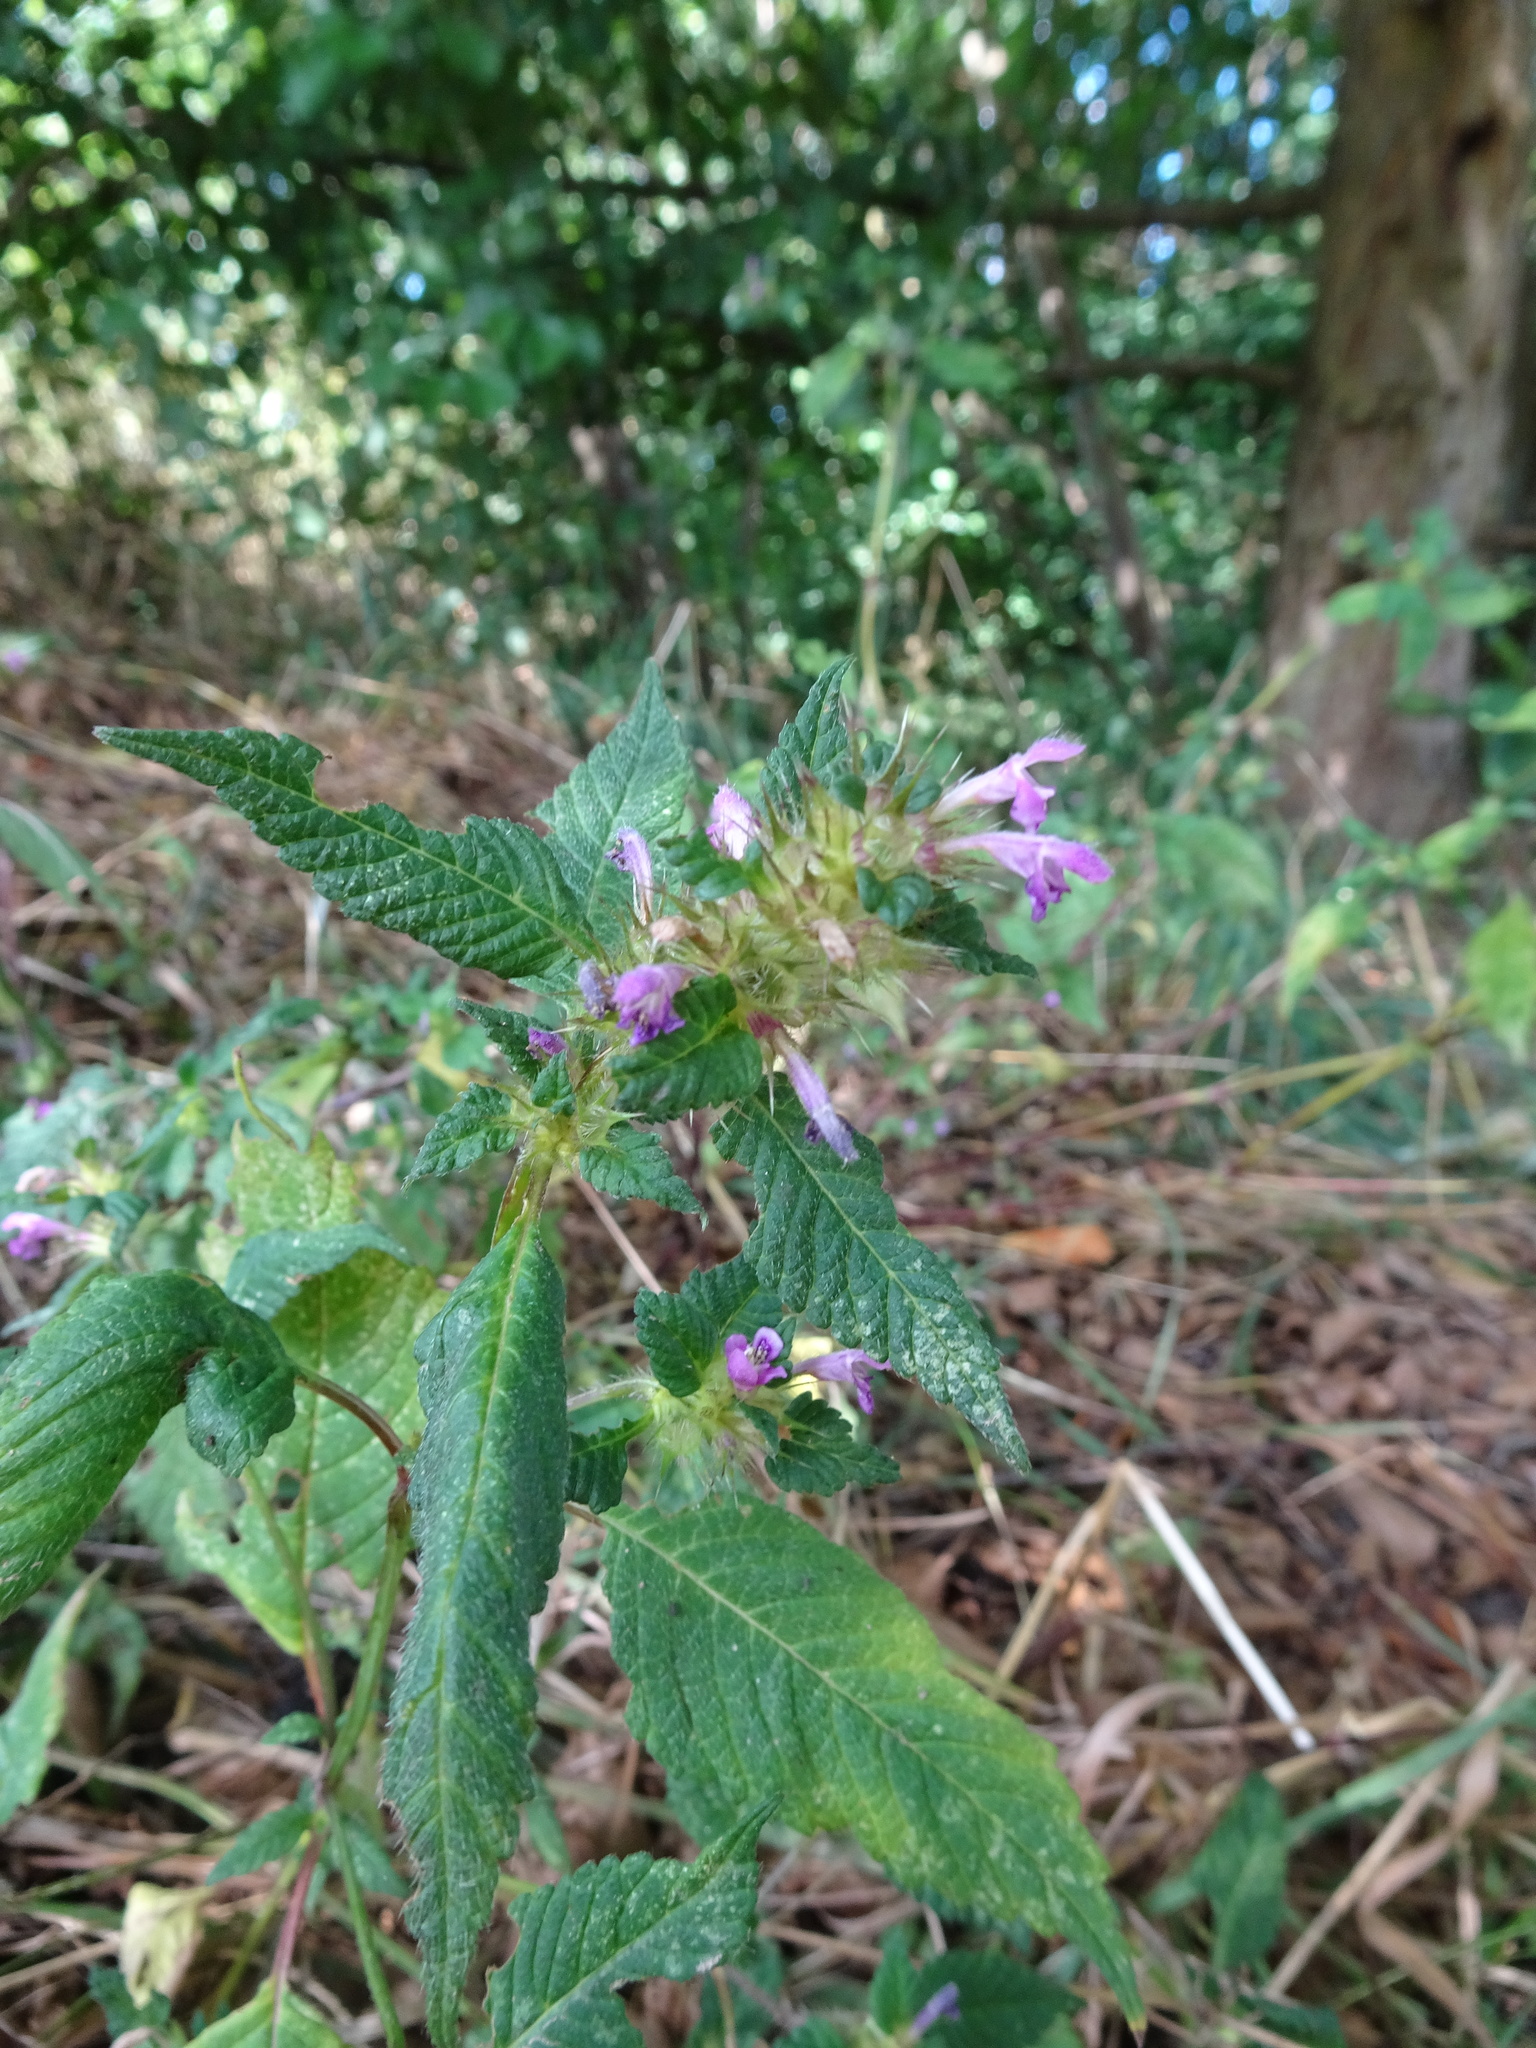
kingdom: Plantae
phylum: Tracheophyta
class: Magnoliopsida
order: Lamiales
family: Lamiaceae
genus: Galeopsis
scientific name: Galeopsis tetrahit
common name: Common hemp-nettle
